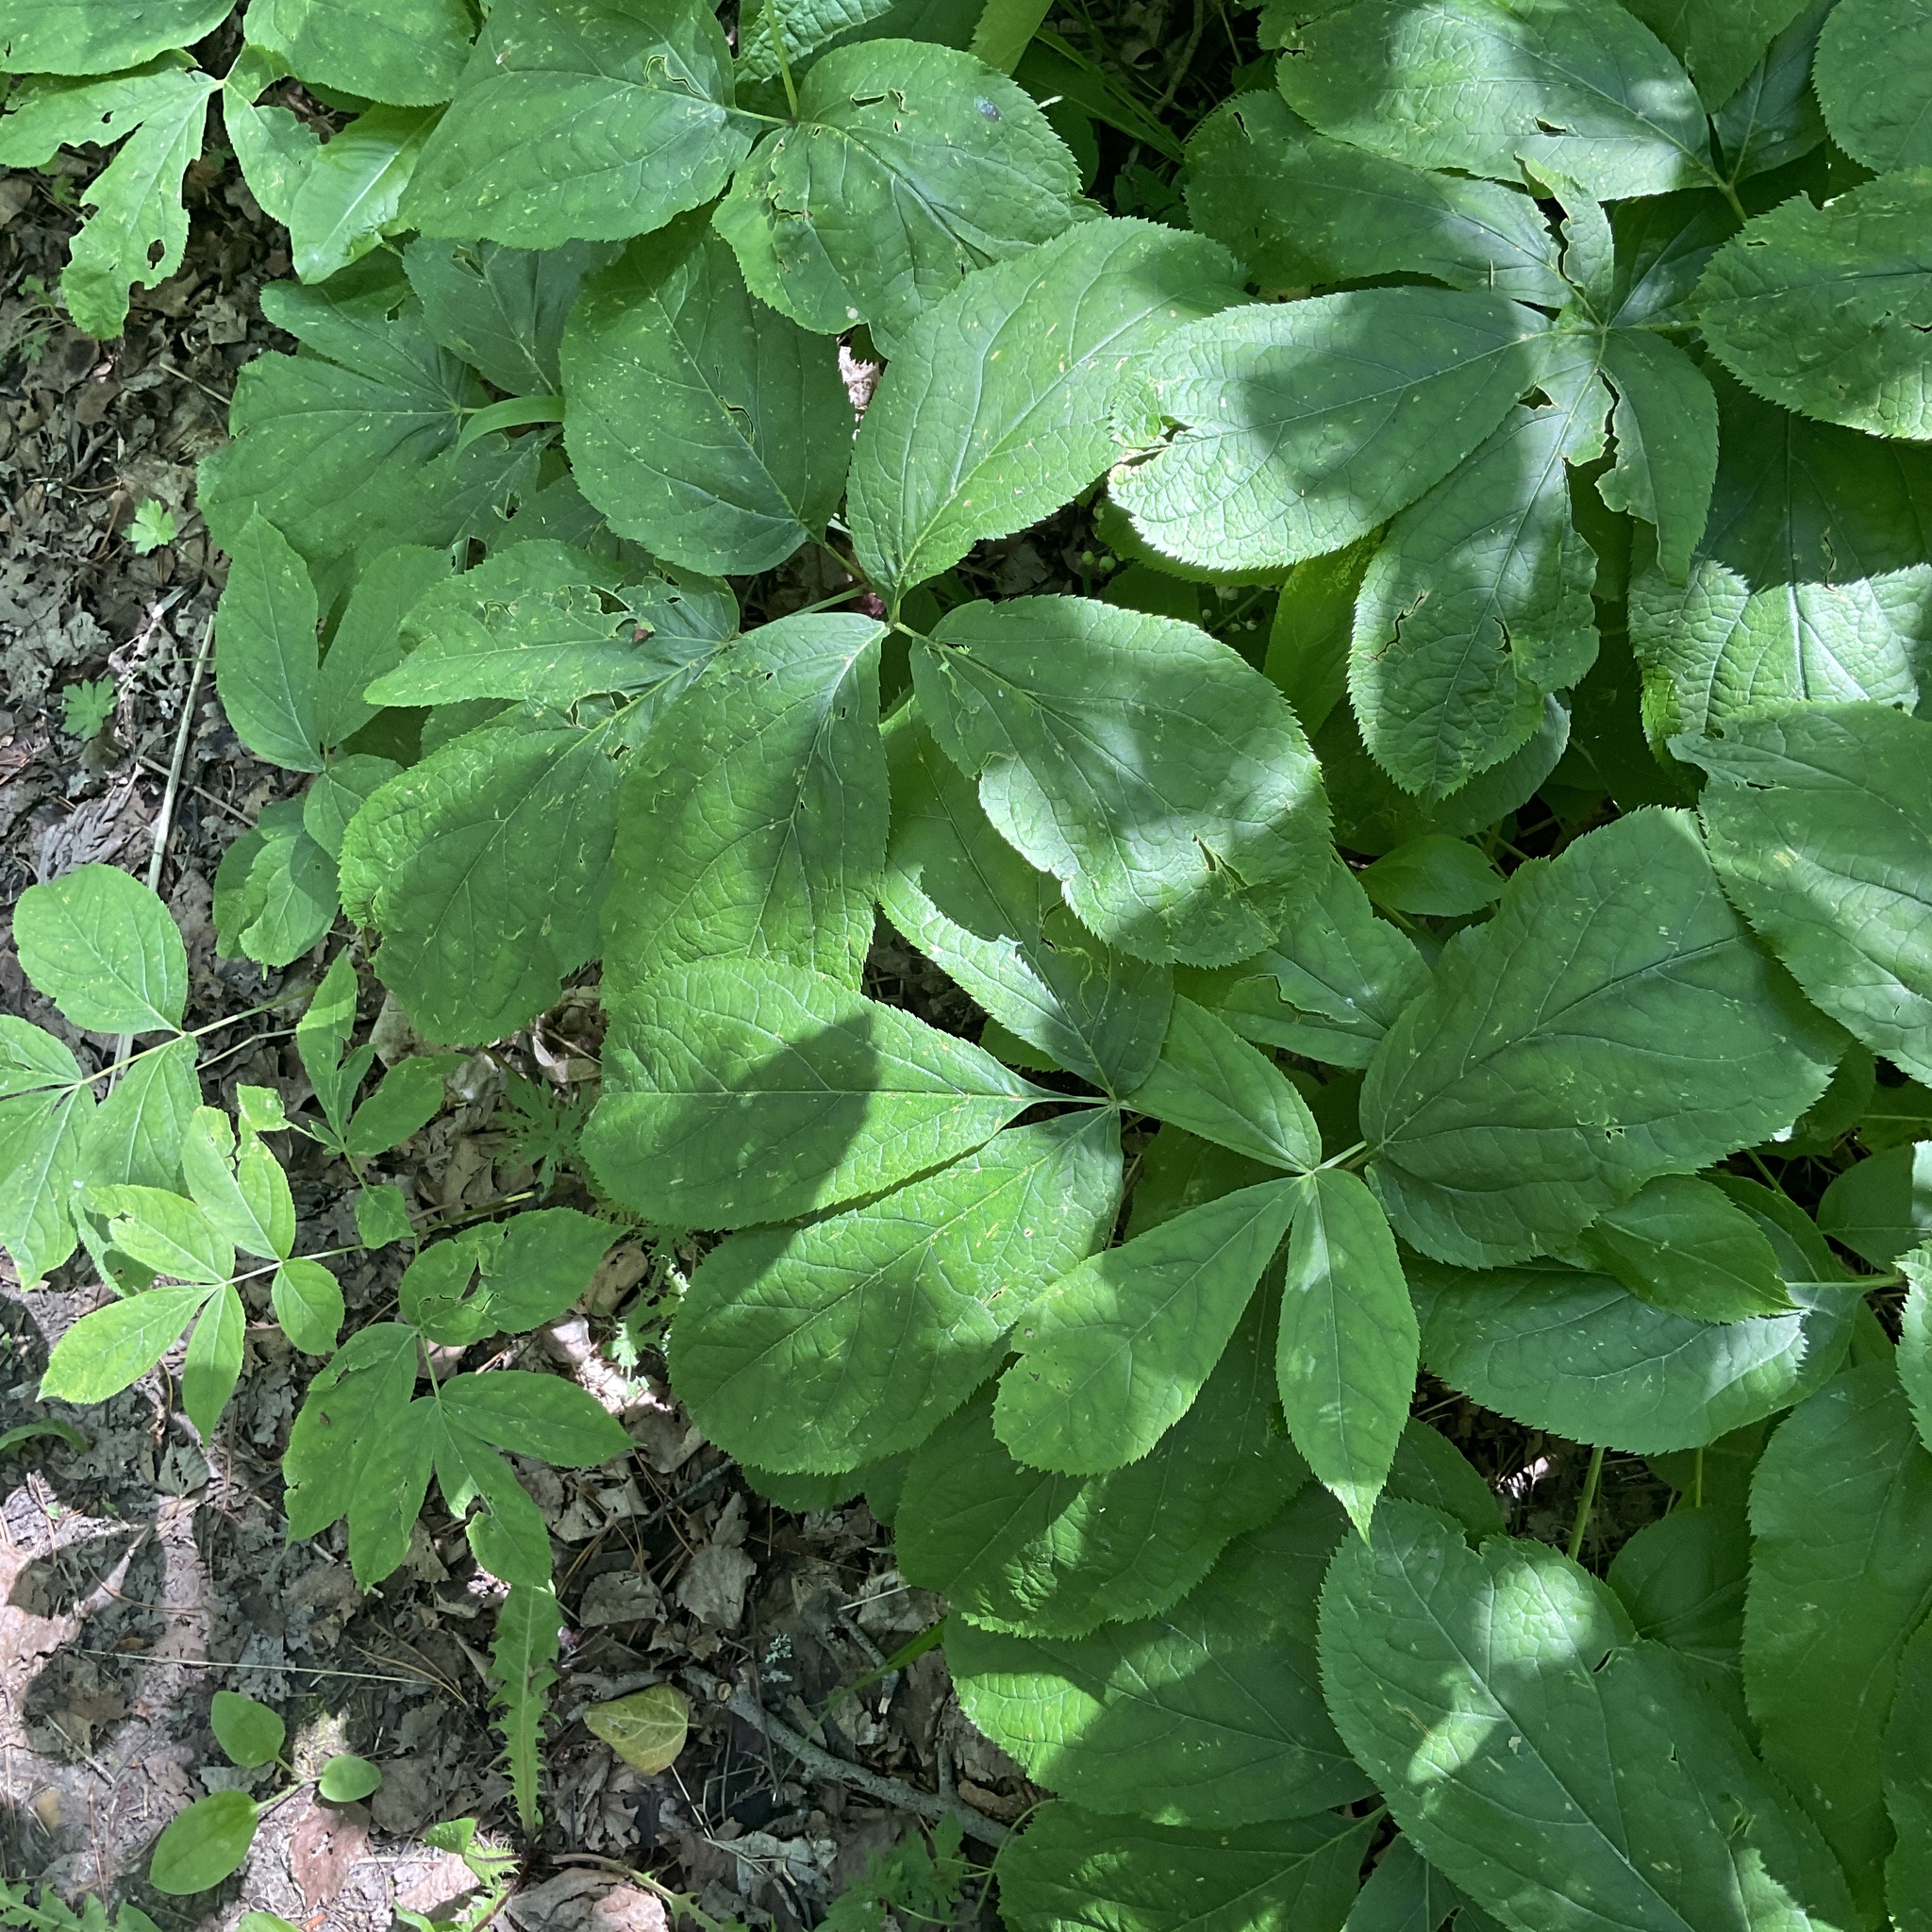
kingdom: Plantae
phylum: Tracheophyta
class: Magnoliopsida
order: Apiales
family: Araliaceae
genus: Aralia
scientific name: Aralia nudicaulis
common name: Wild sarsaparilla
